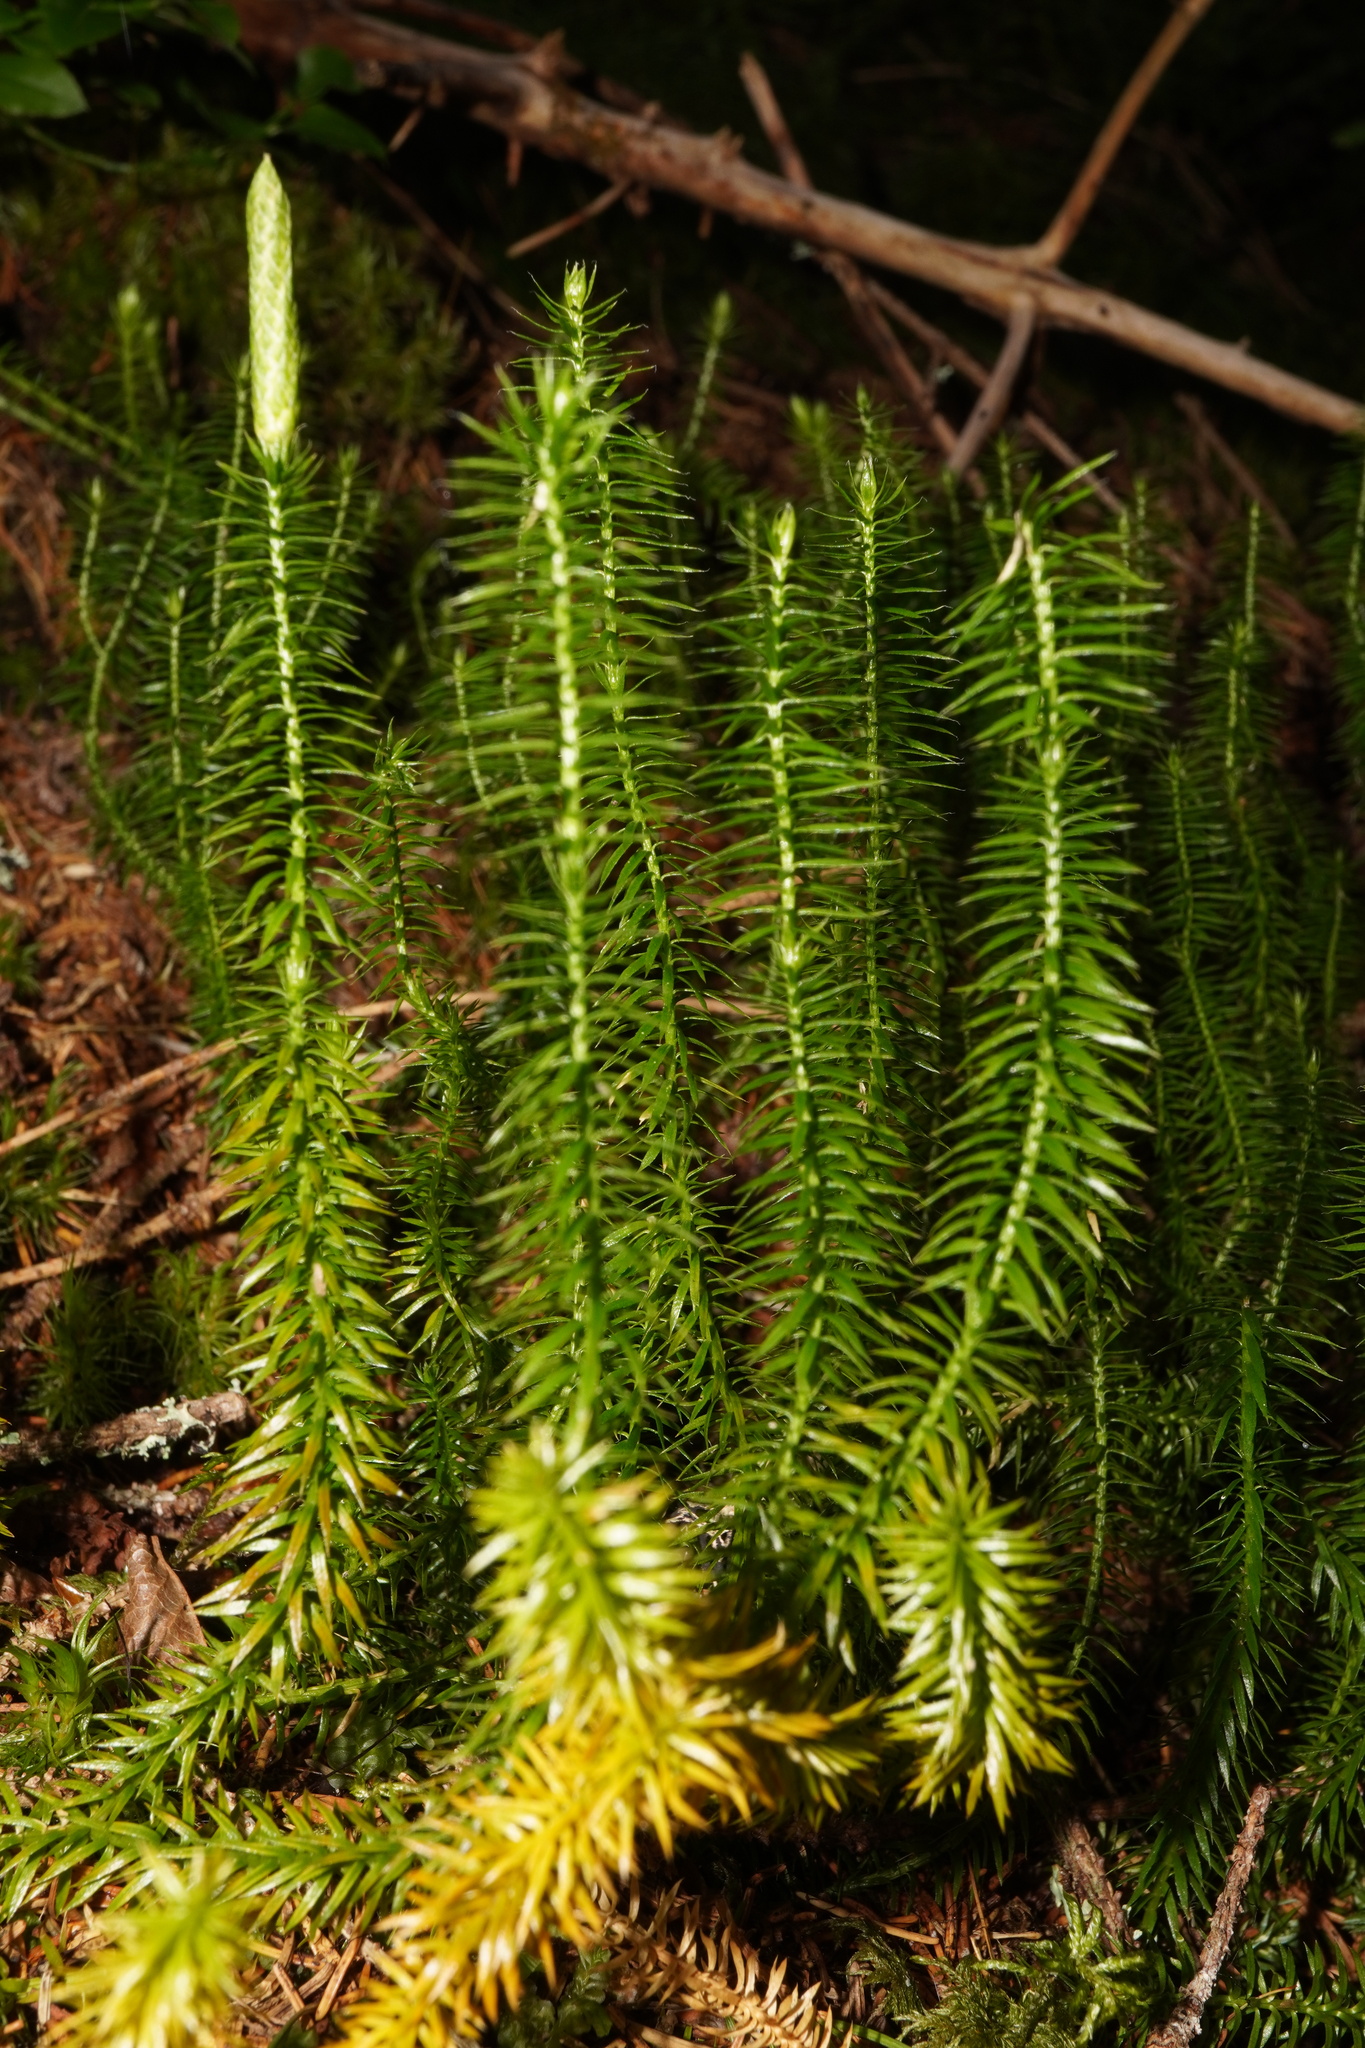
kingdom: Plantae
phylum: Tracheophyta
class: Lycopodiopsida
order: Lycopodiales
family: Lycopodiaceae
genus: Spinulum
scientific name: Spinulum annotinum
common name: Interrupted club-moss
